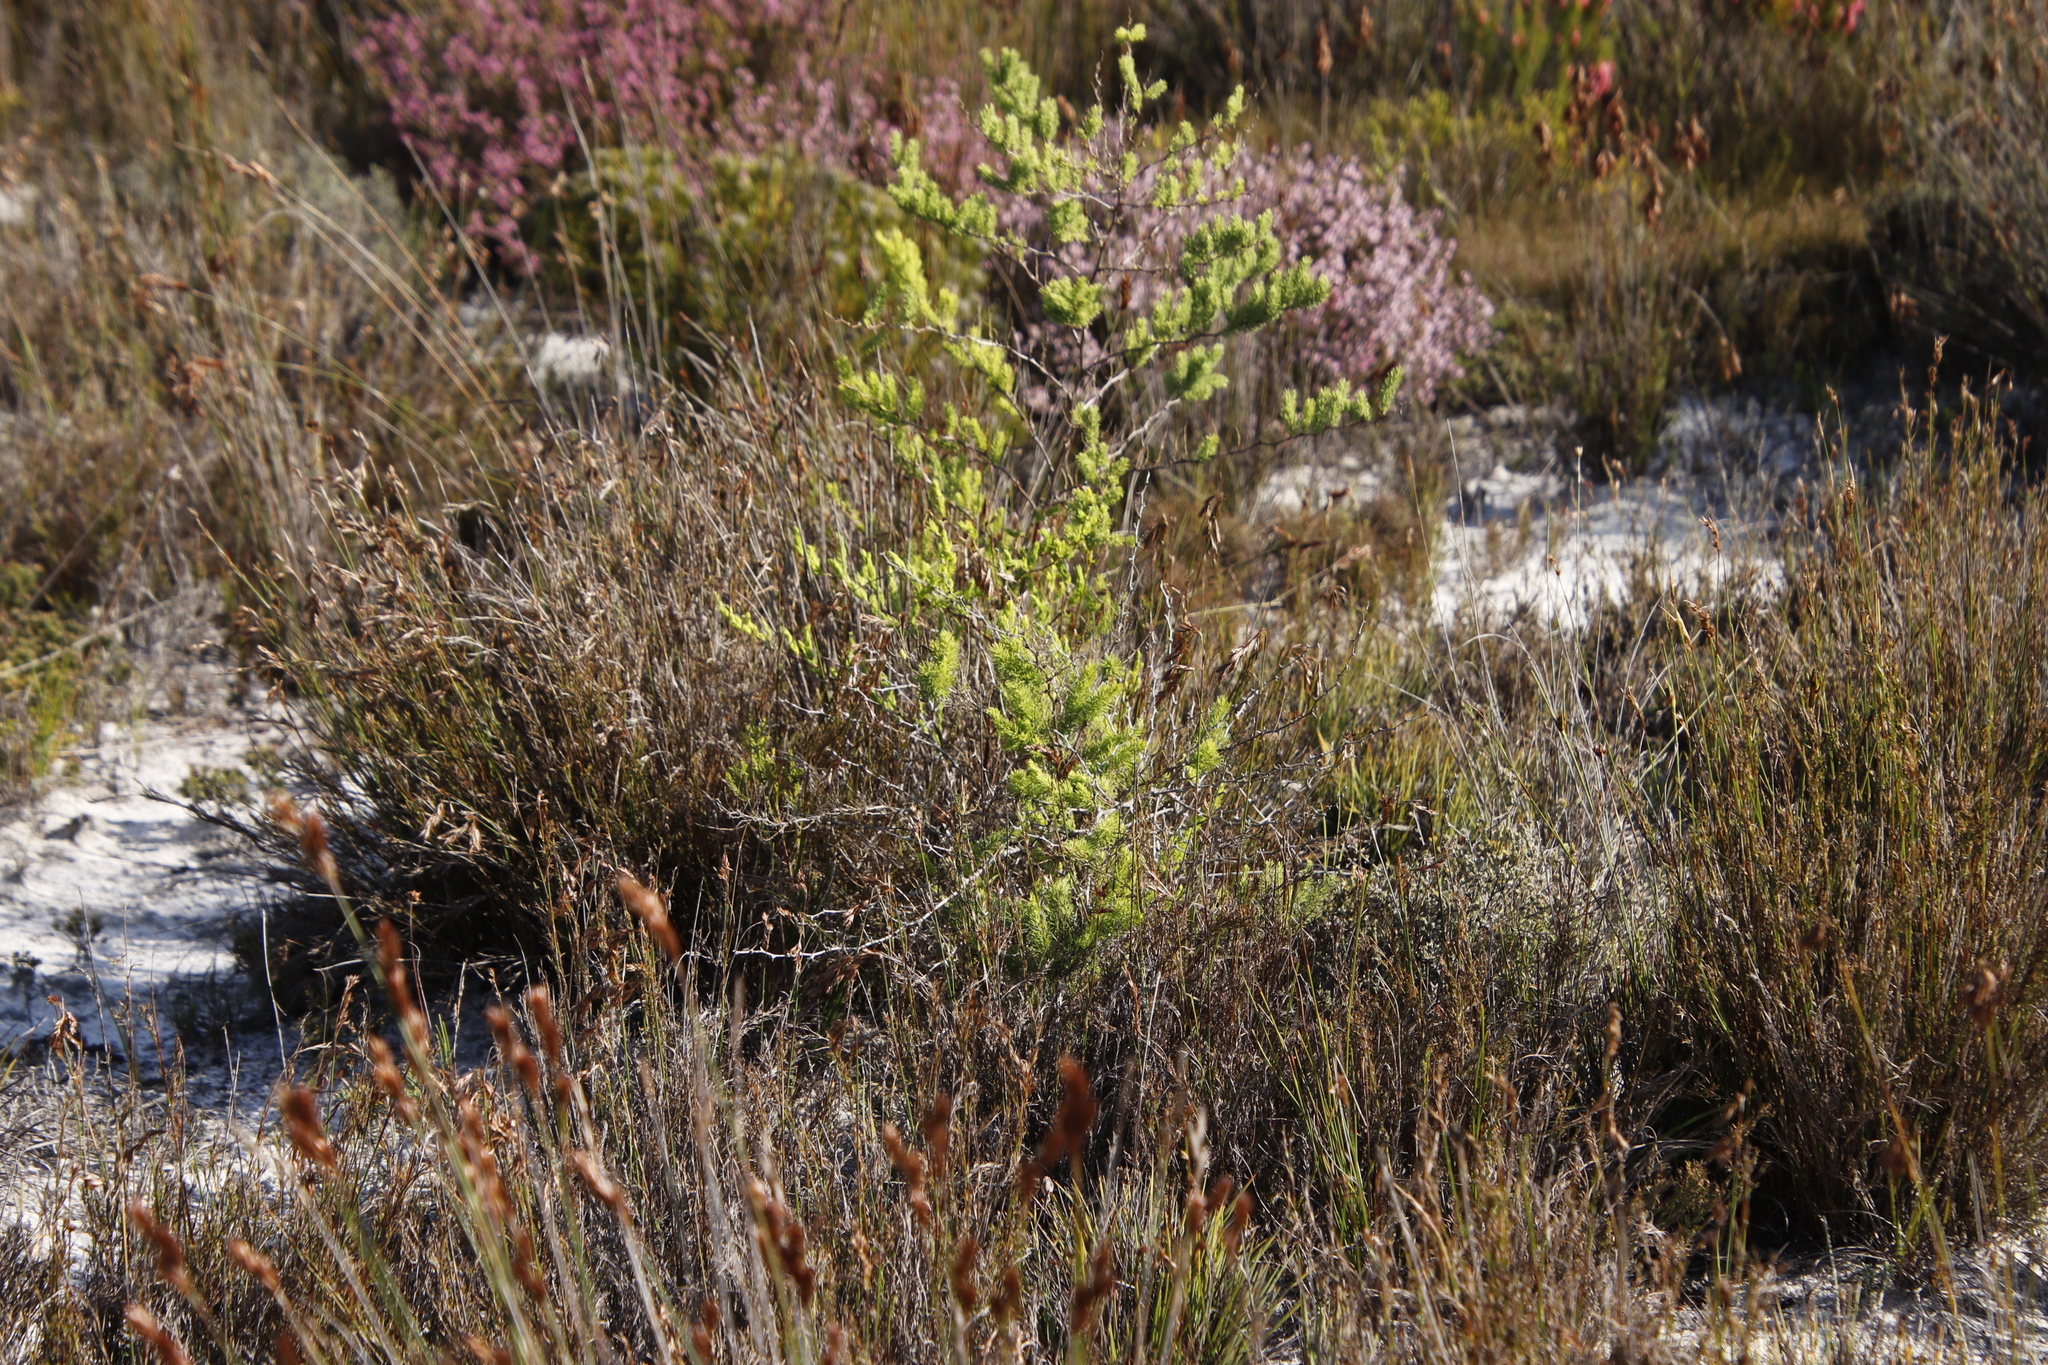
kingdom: Plantae
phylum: Tracheophyta
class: Liliopsida
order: Asparagales
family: Asparagaceae
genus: Asparagus
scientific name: Asparagus rubicundus
